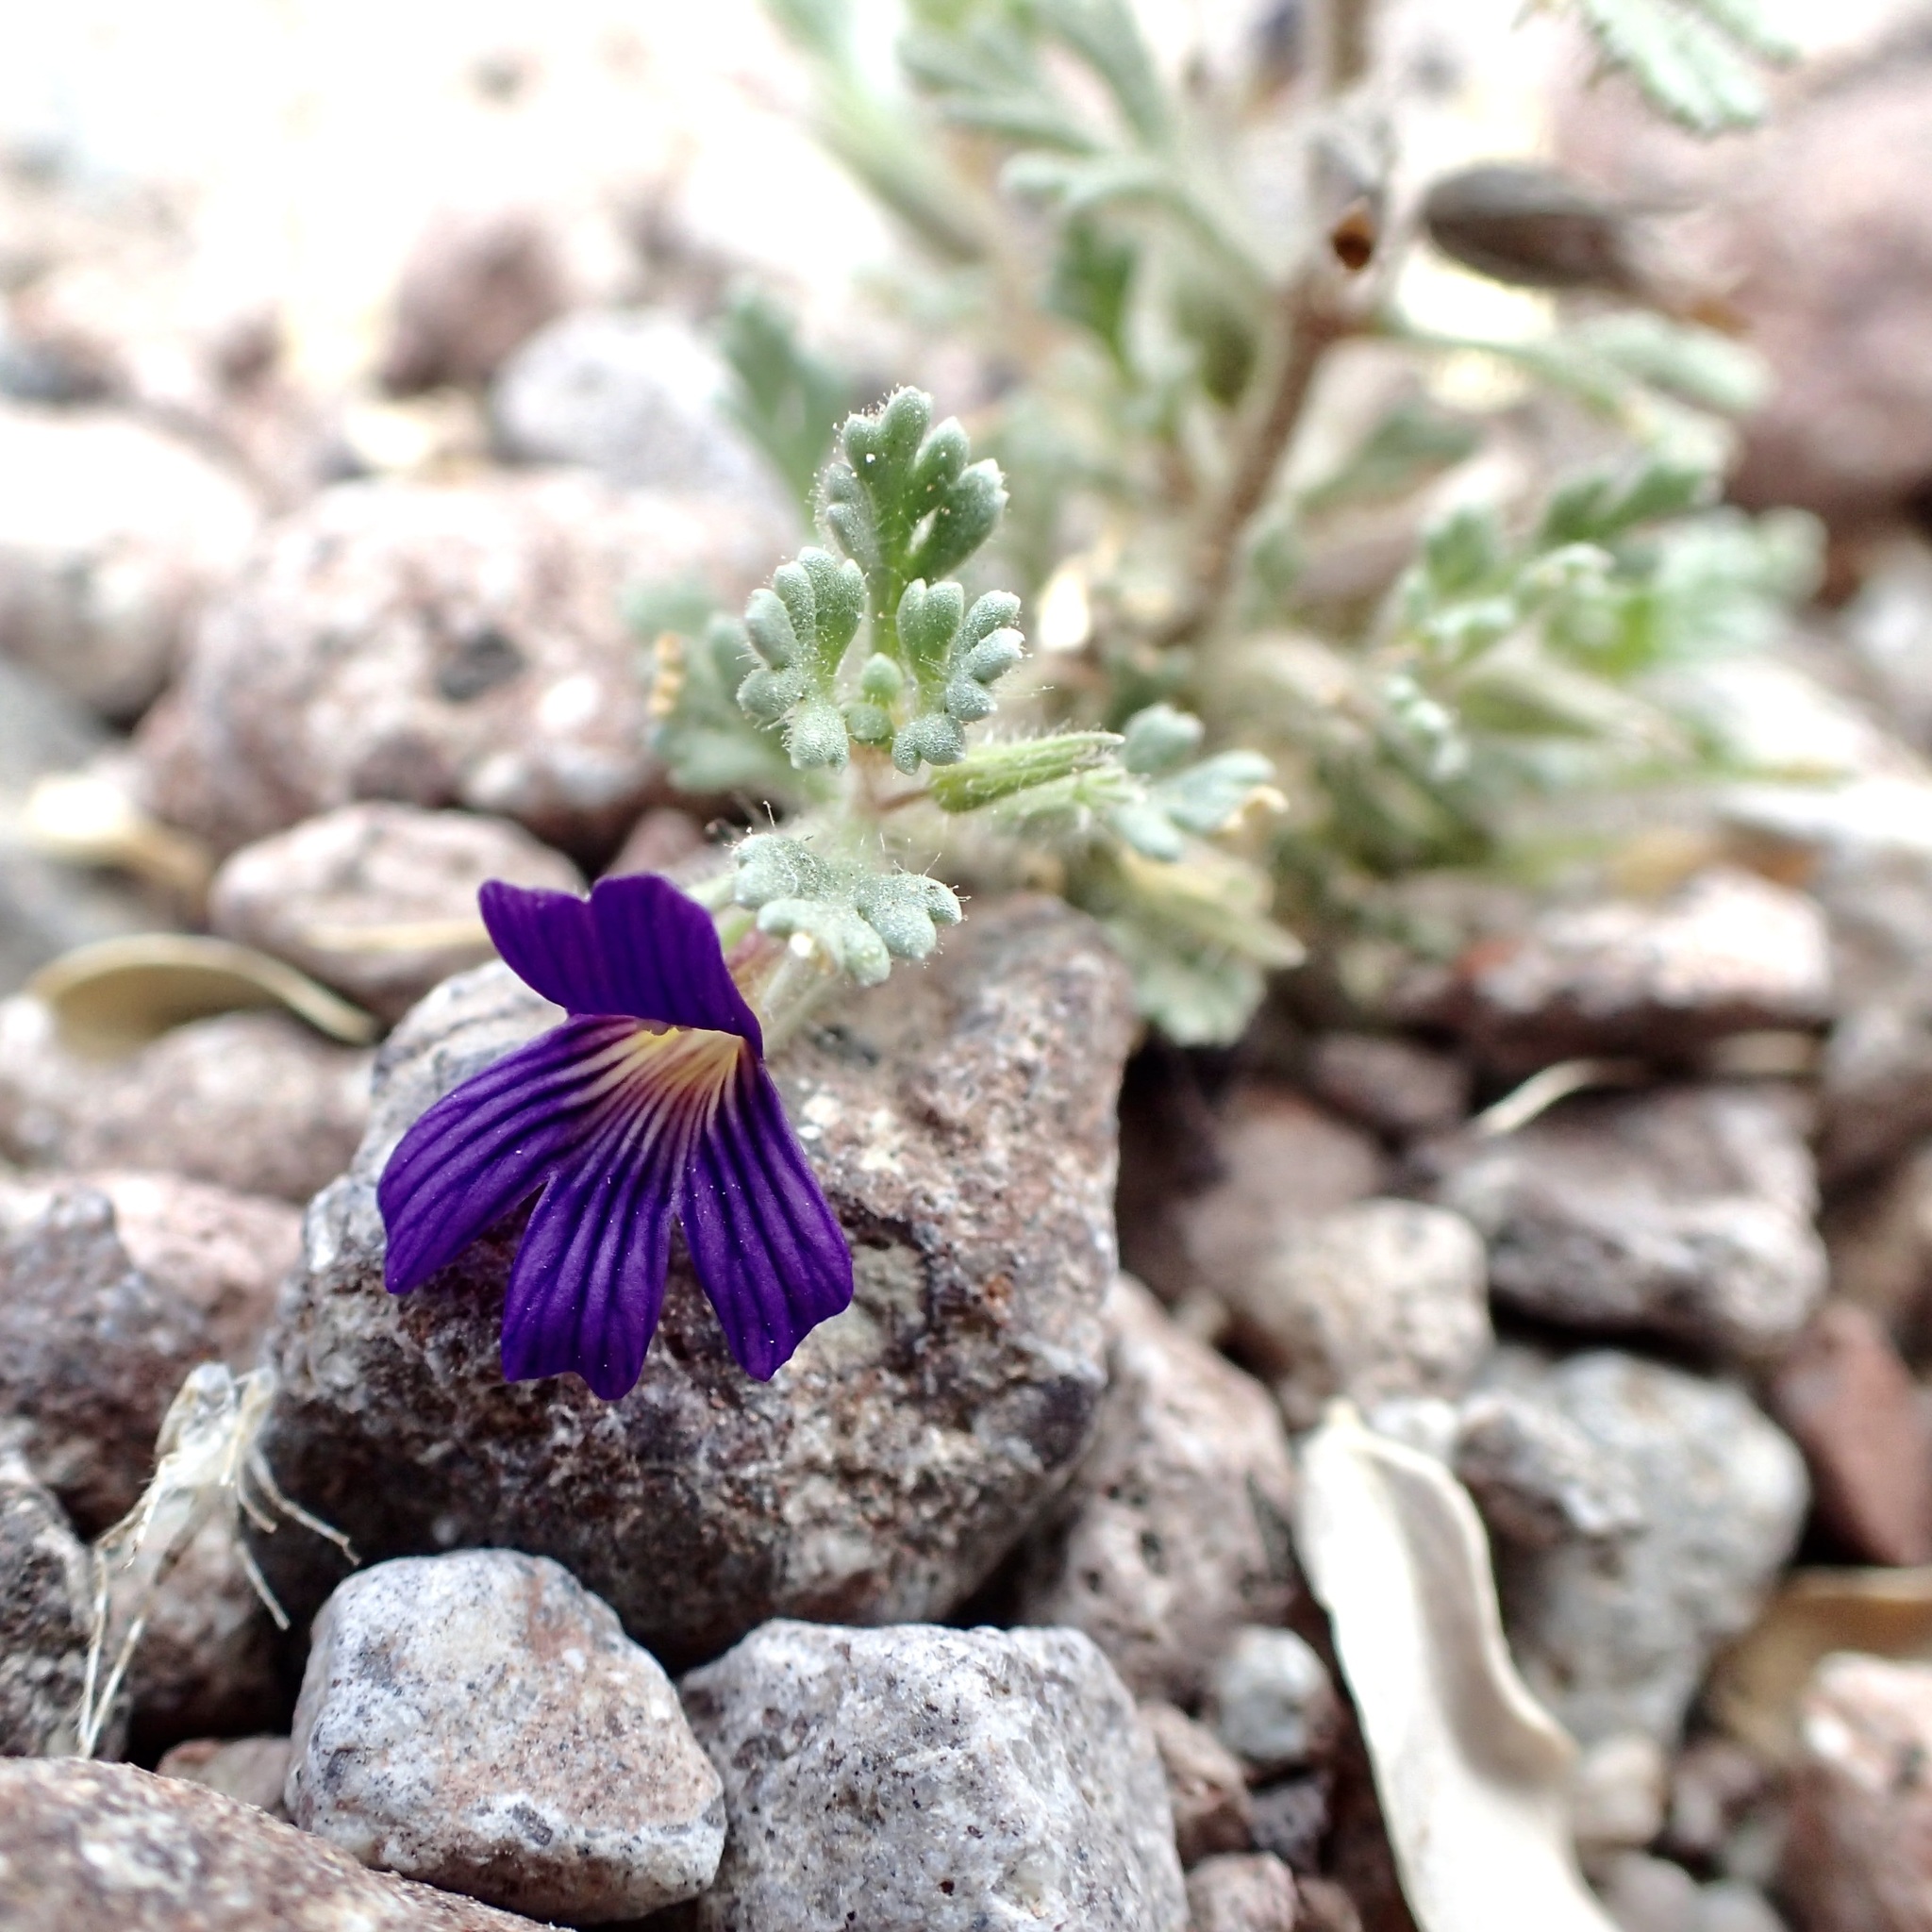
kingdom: Plantae
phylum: Tracheophyta
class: Magnoliopsida
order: Lamiales
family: Plantaginaceae
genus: Schistophragma
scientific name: Schistophragma polystachyum
